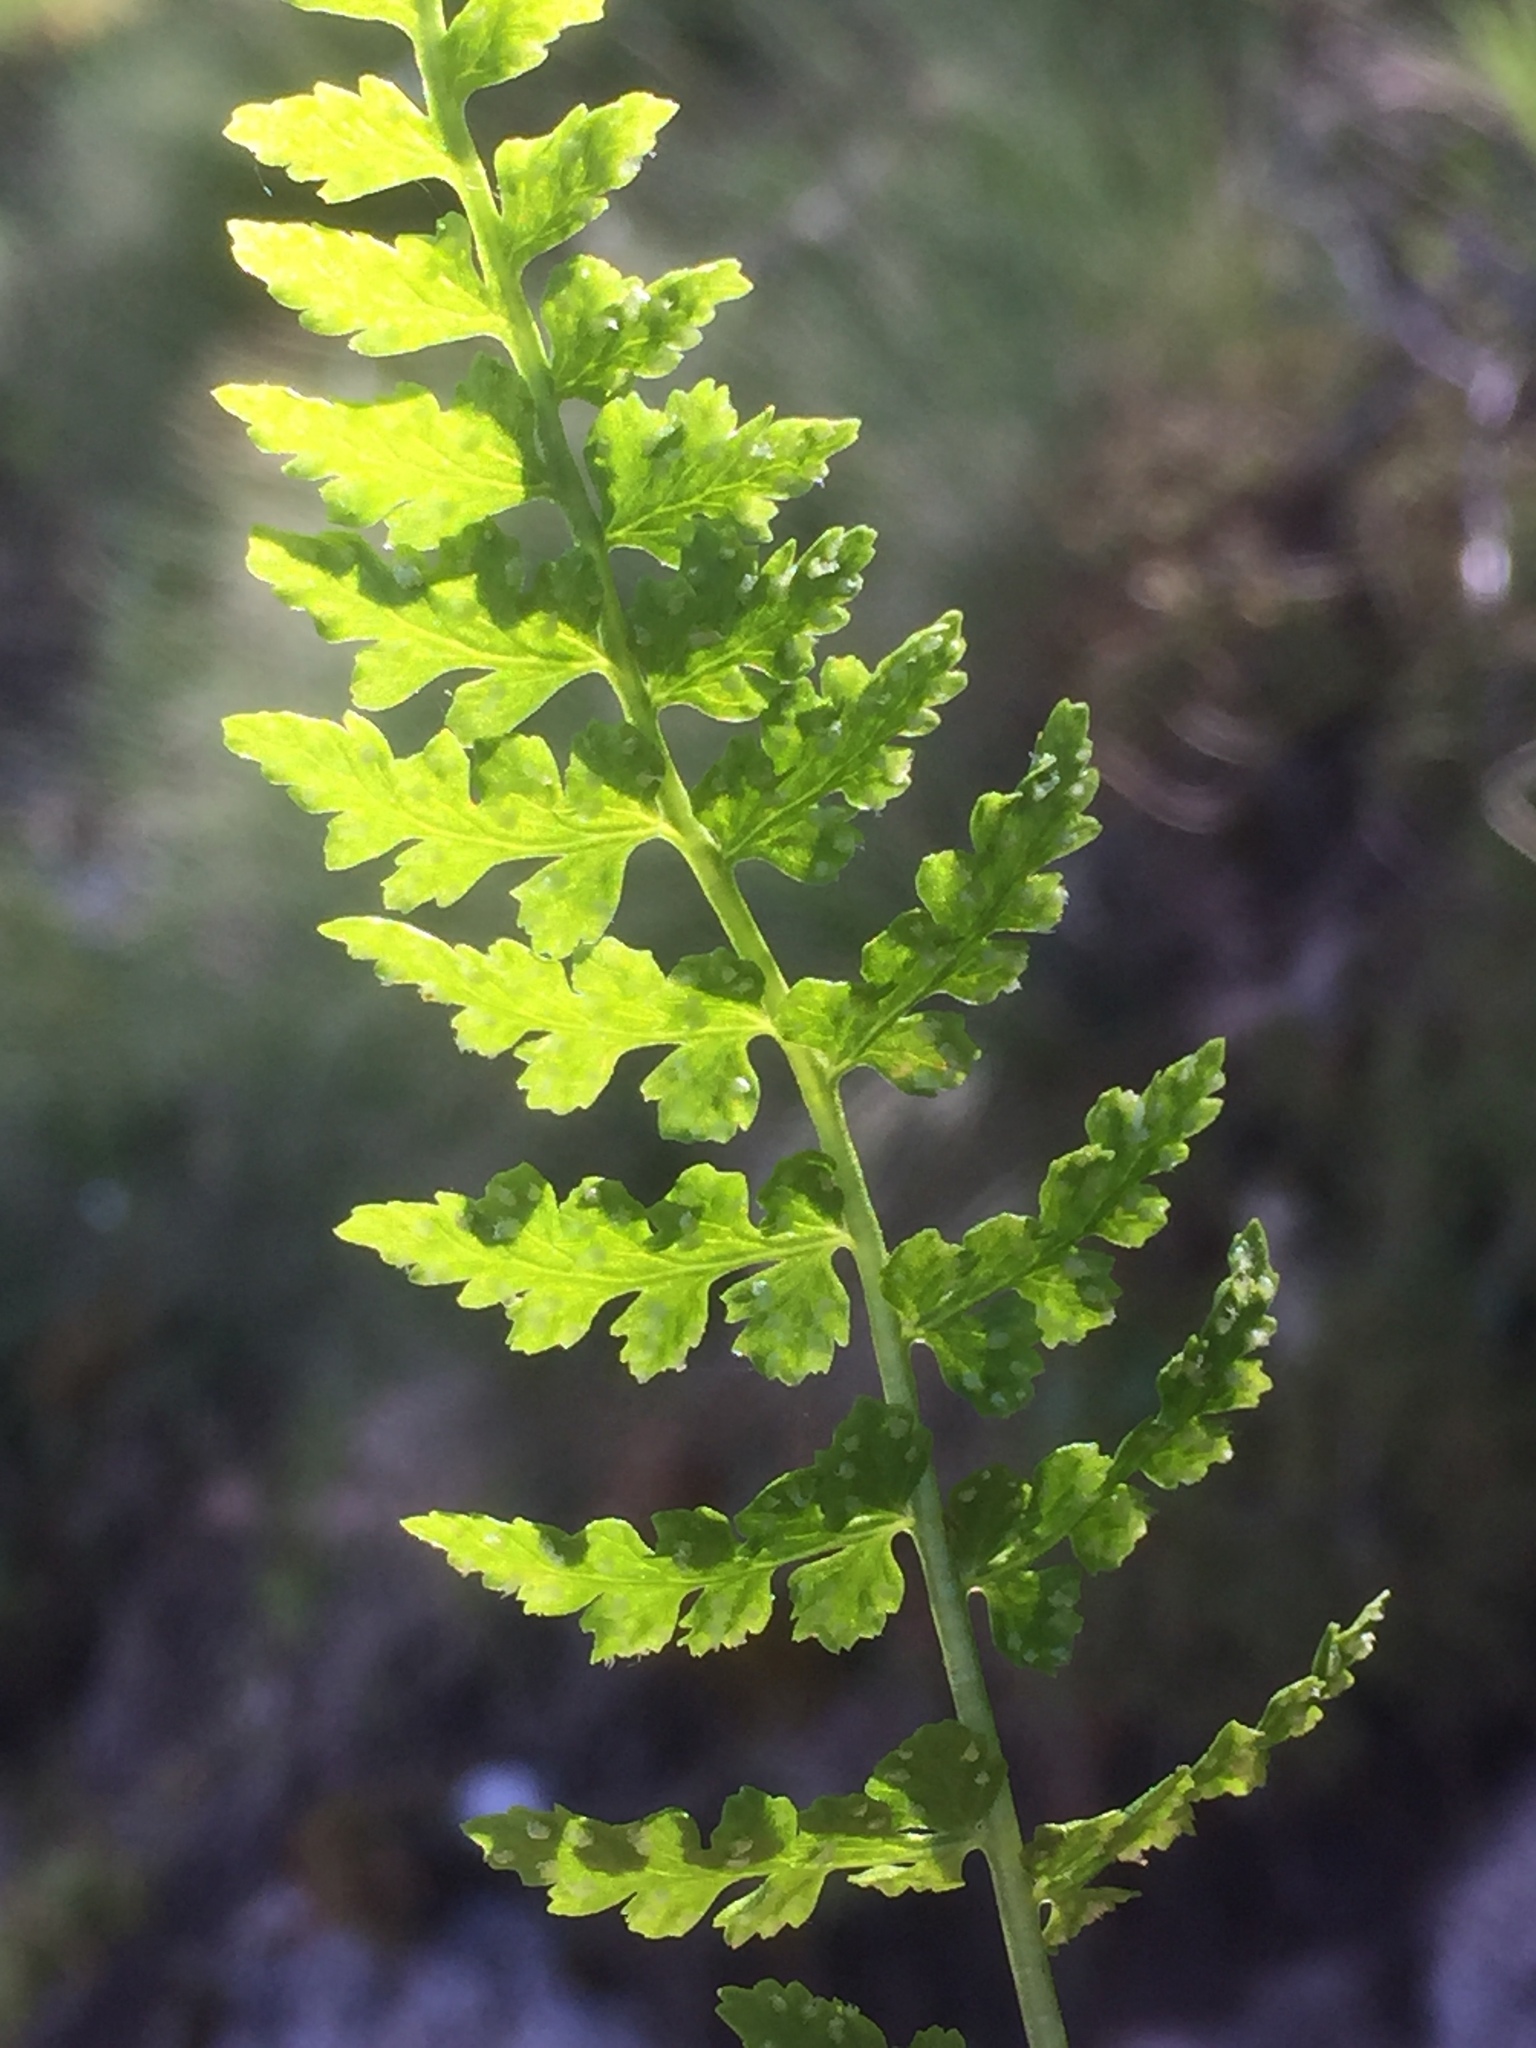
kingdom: Plantae
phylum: Tracheophyta
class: Polypodiopsida
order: Polypodiales
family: Cystopteridaceae
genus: Cystopteris
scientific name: Cystopteris fragilis
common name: Brittle bladder fern
